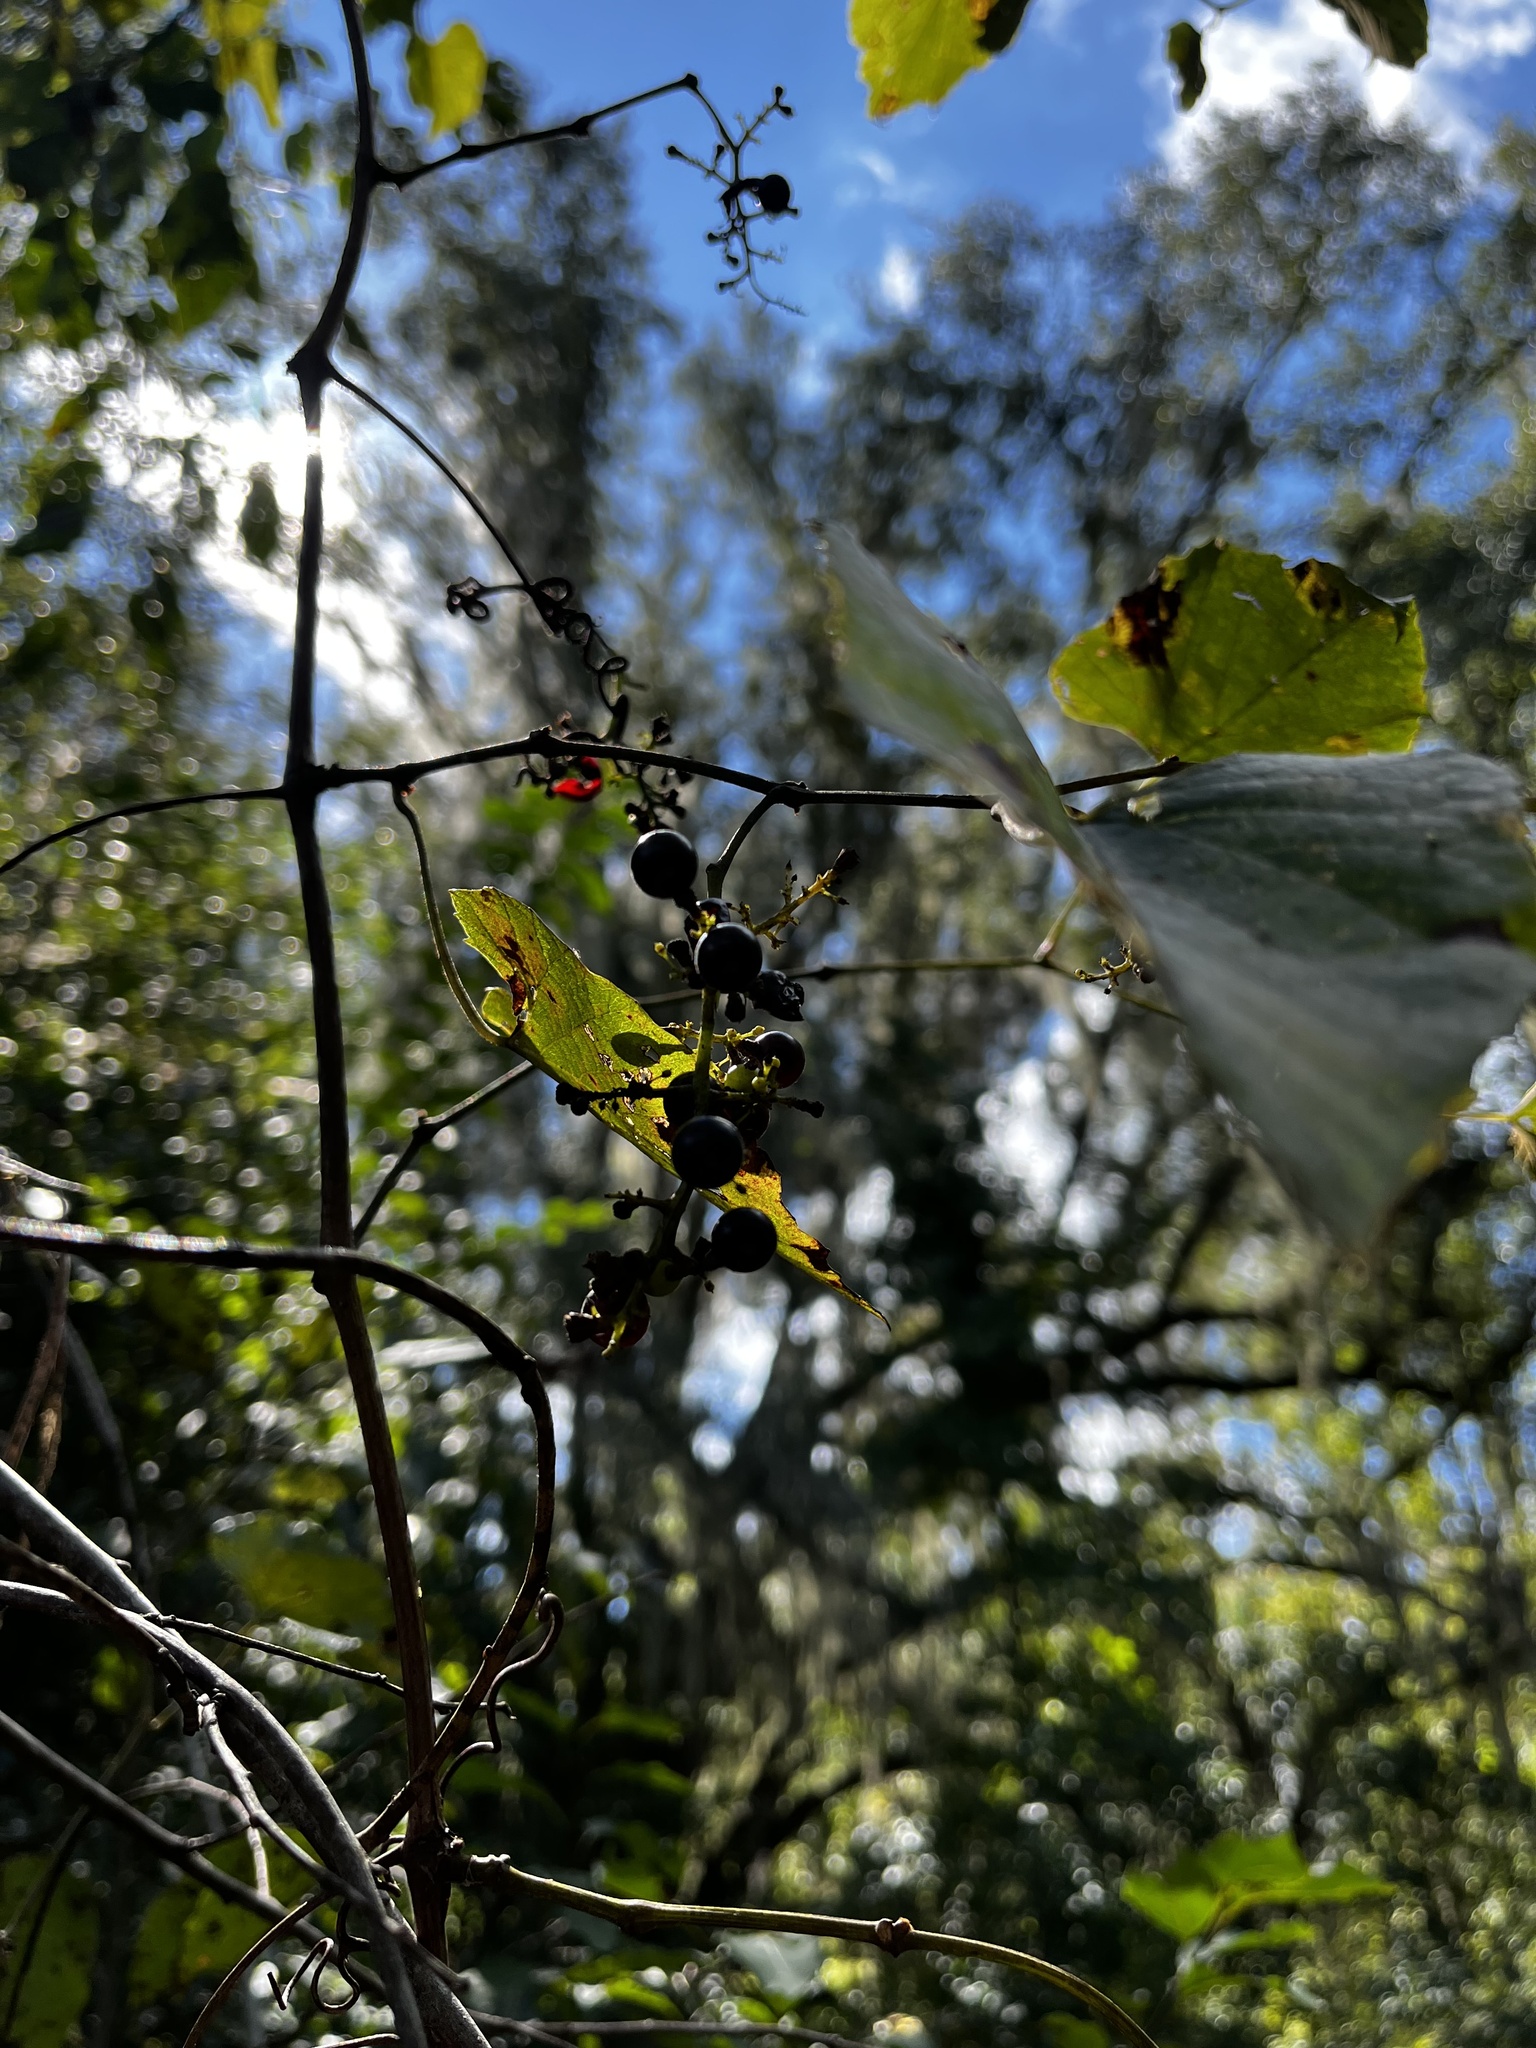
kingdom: Plantae
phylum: Tracheophyta
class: Magnoliopsida
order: Vitales
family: Vitaceae
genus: Vitis
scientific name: Vitis rotundifolia
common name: Muscadine grape
